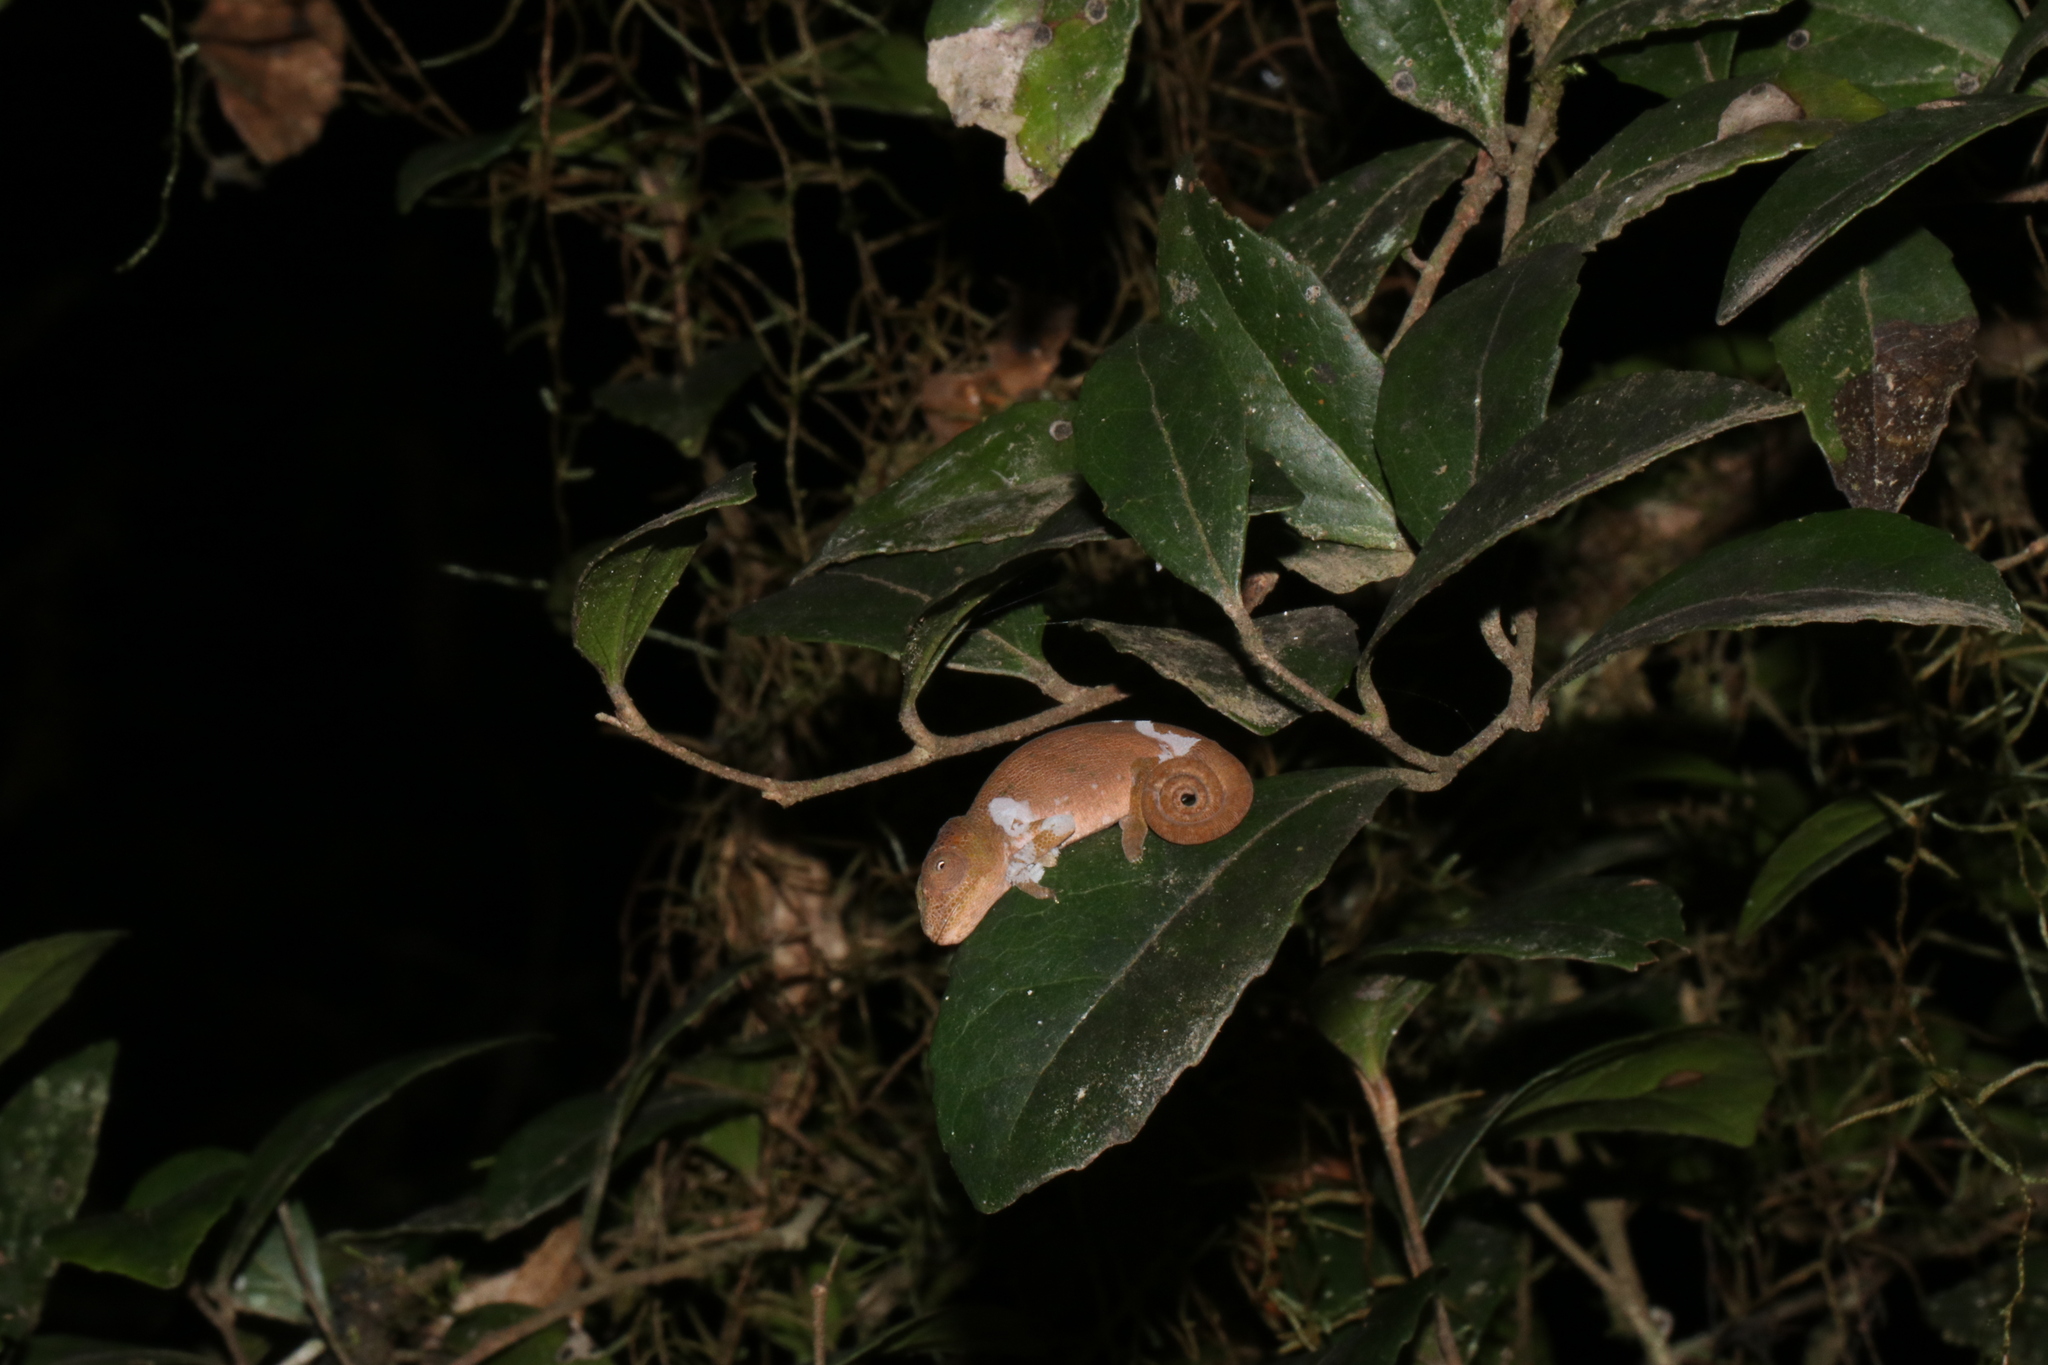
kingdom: Animalia
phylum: Chordata
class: Squamata
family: Chamaeleonidae
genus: Kinyongia
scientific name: Kinyongia msuyae
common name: Msuya’s forest chameleon
